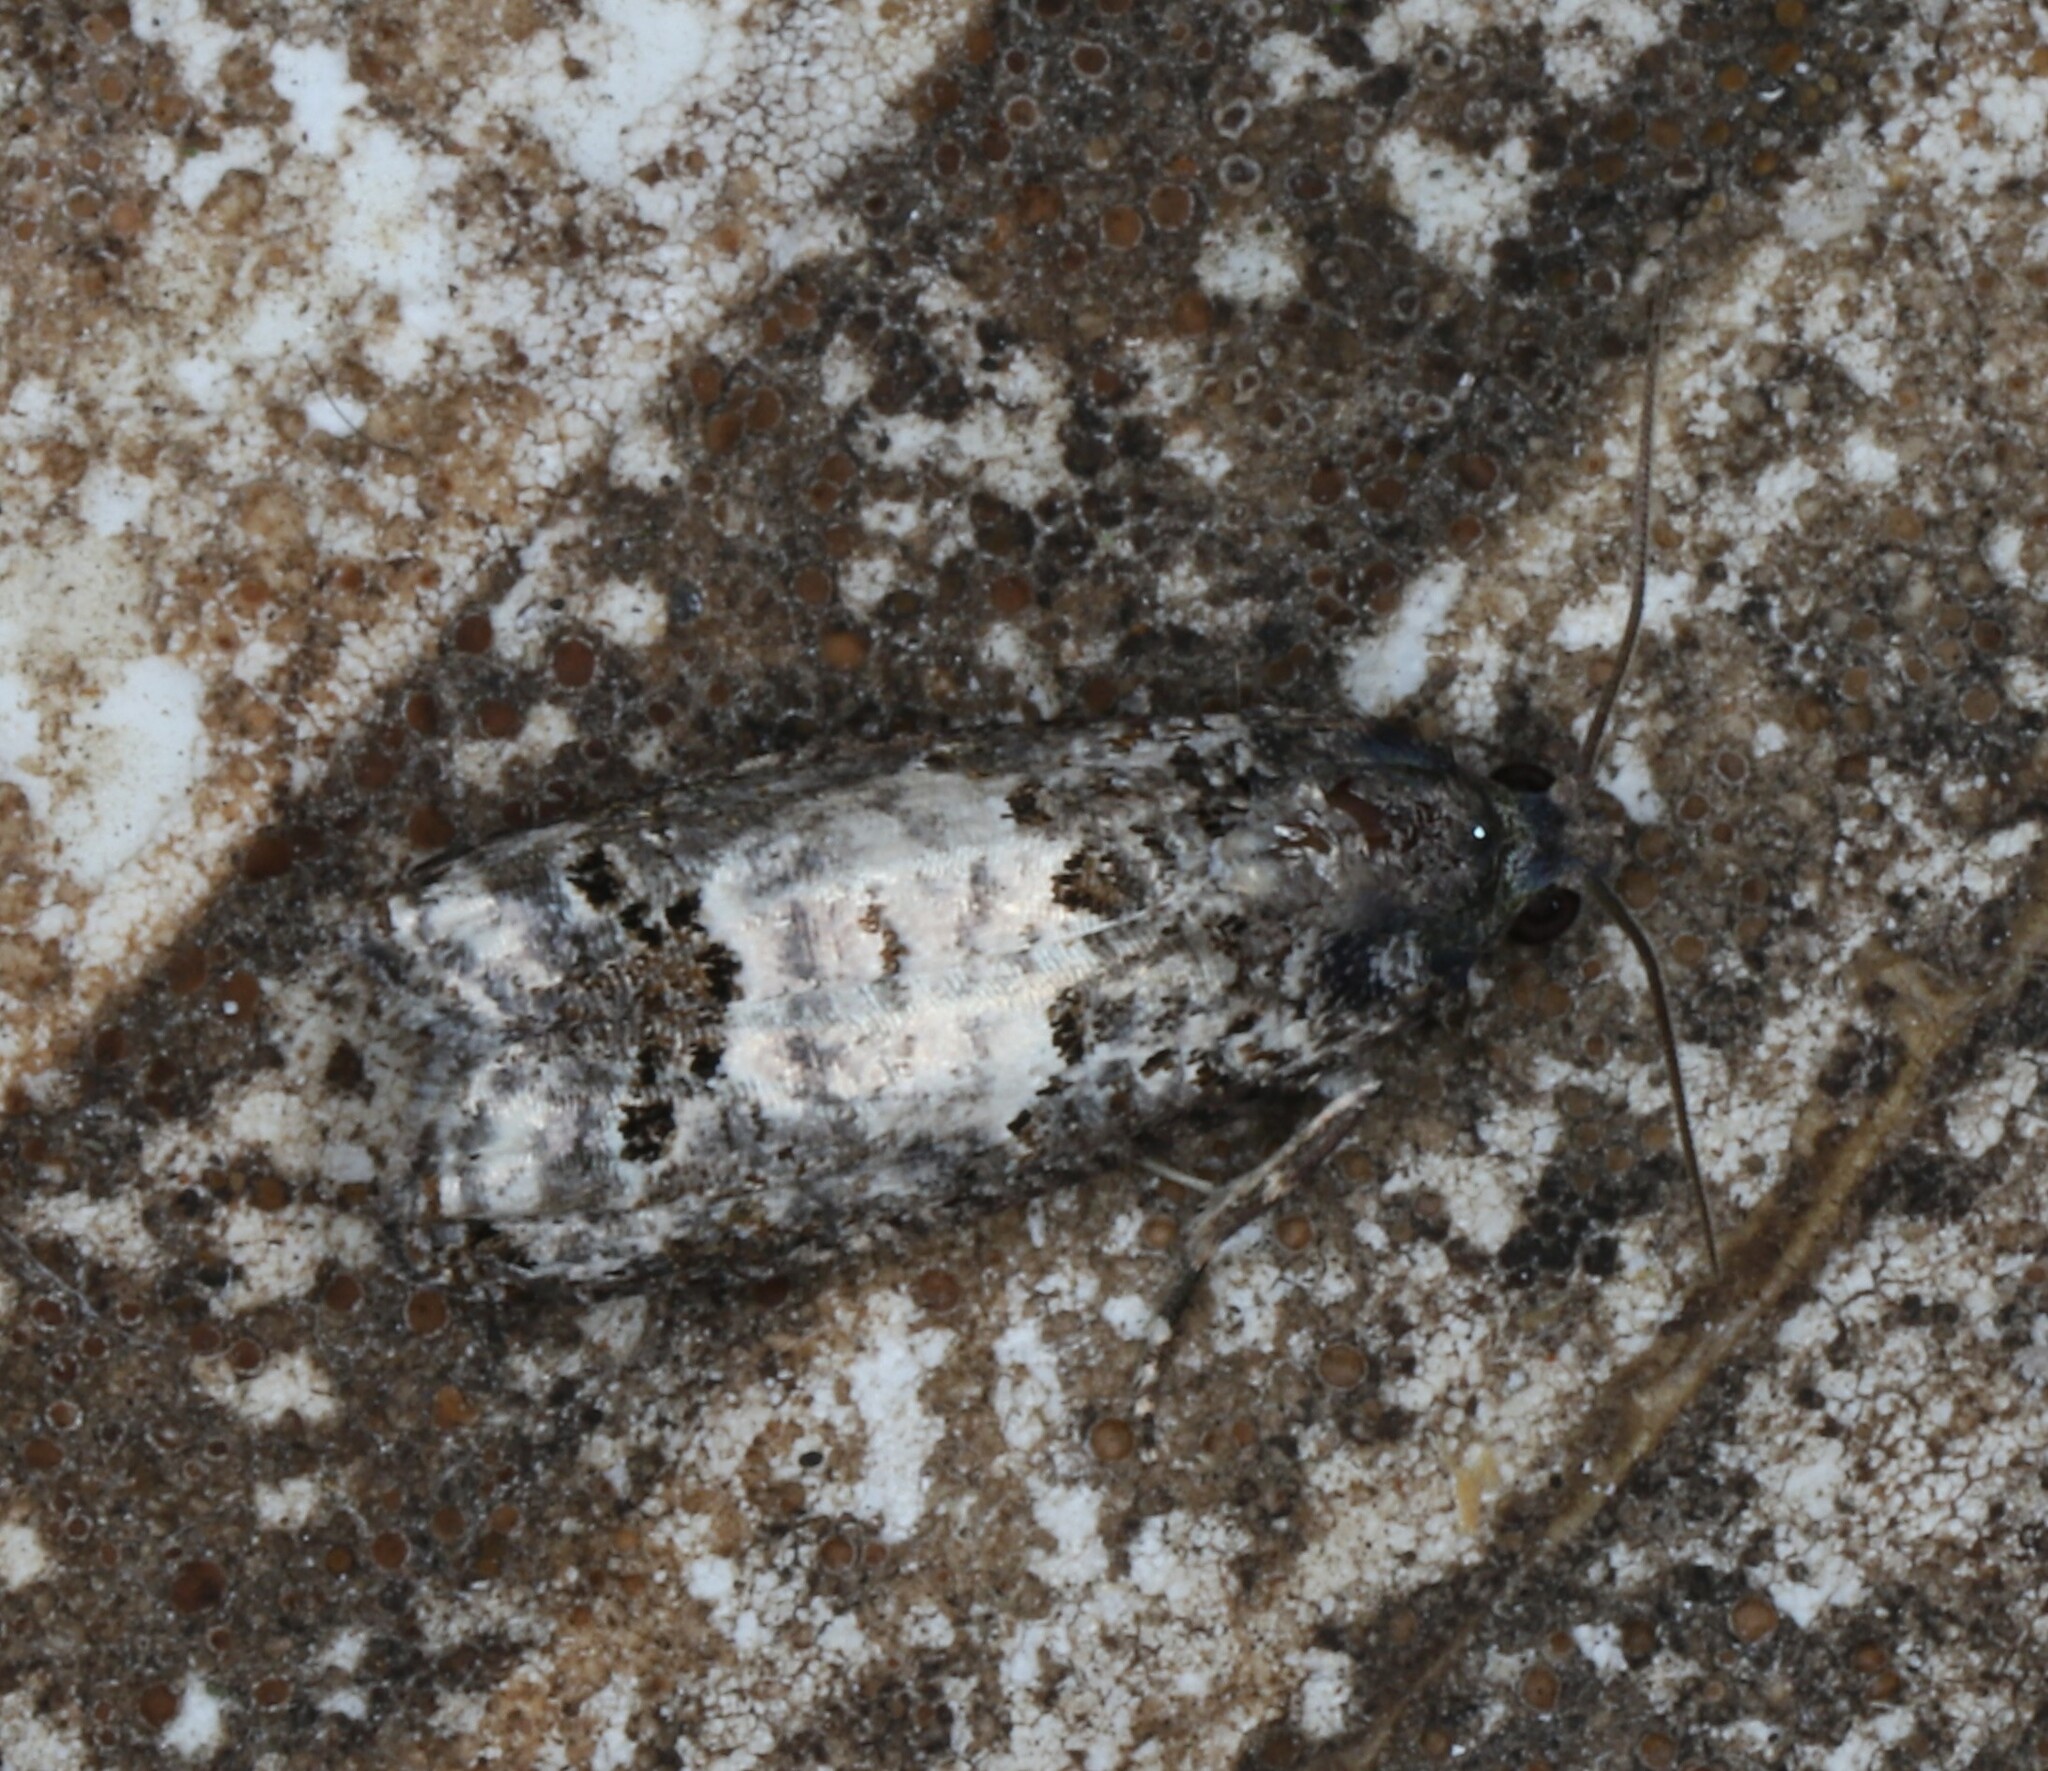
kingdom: Animalia
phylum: Arthropoda
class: Insecta
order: Lepidoptera
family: Tortricidae
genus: Epiblema
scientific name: Epiblema carolinana
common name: Gray-blotched epiblema moth
